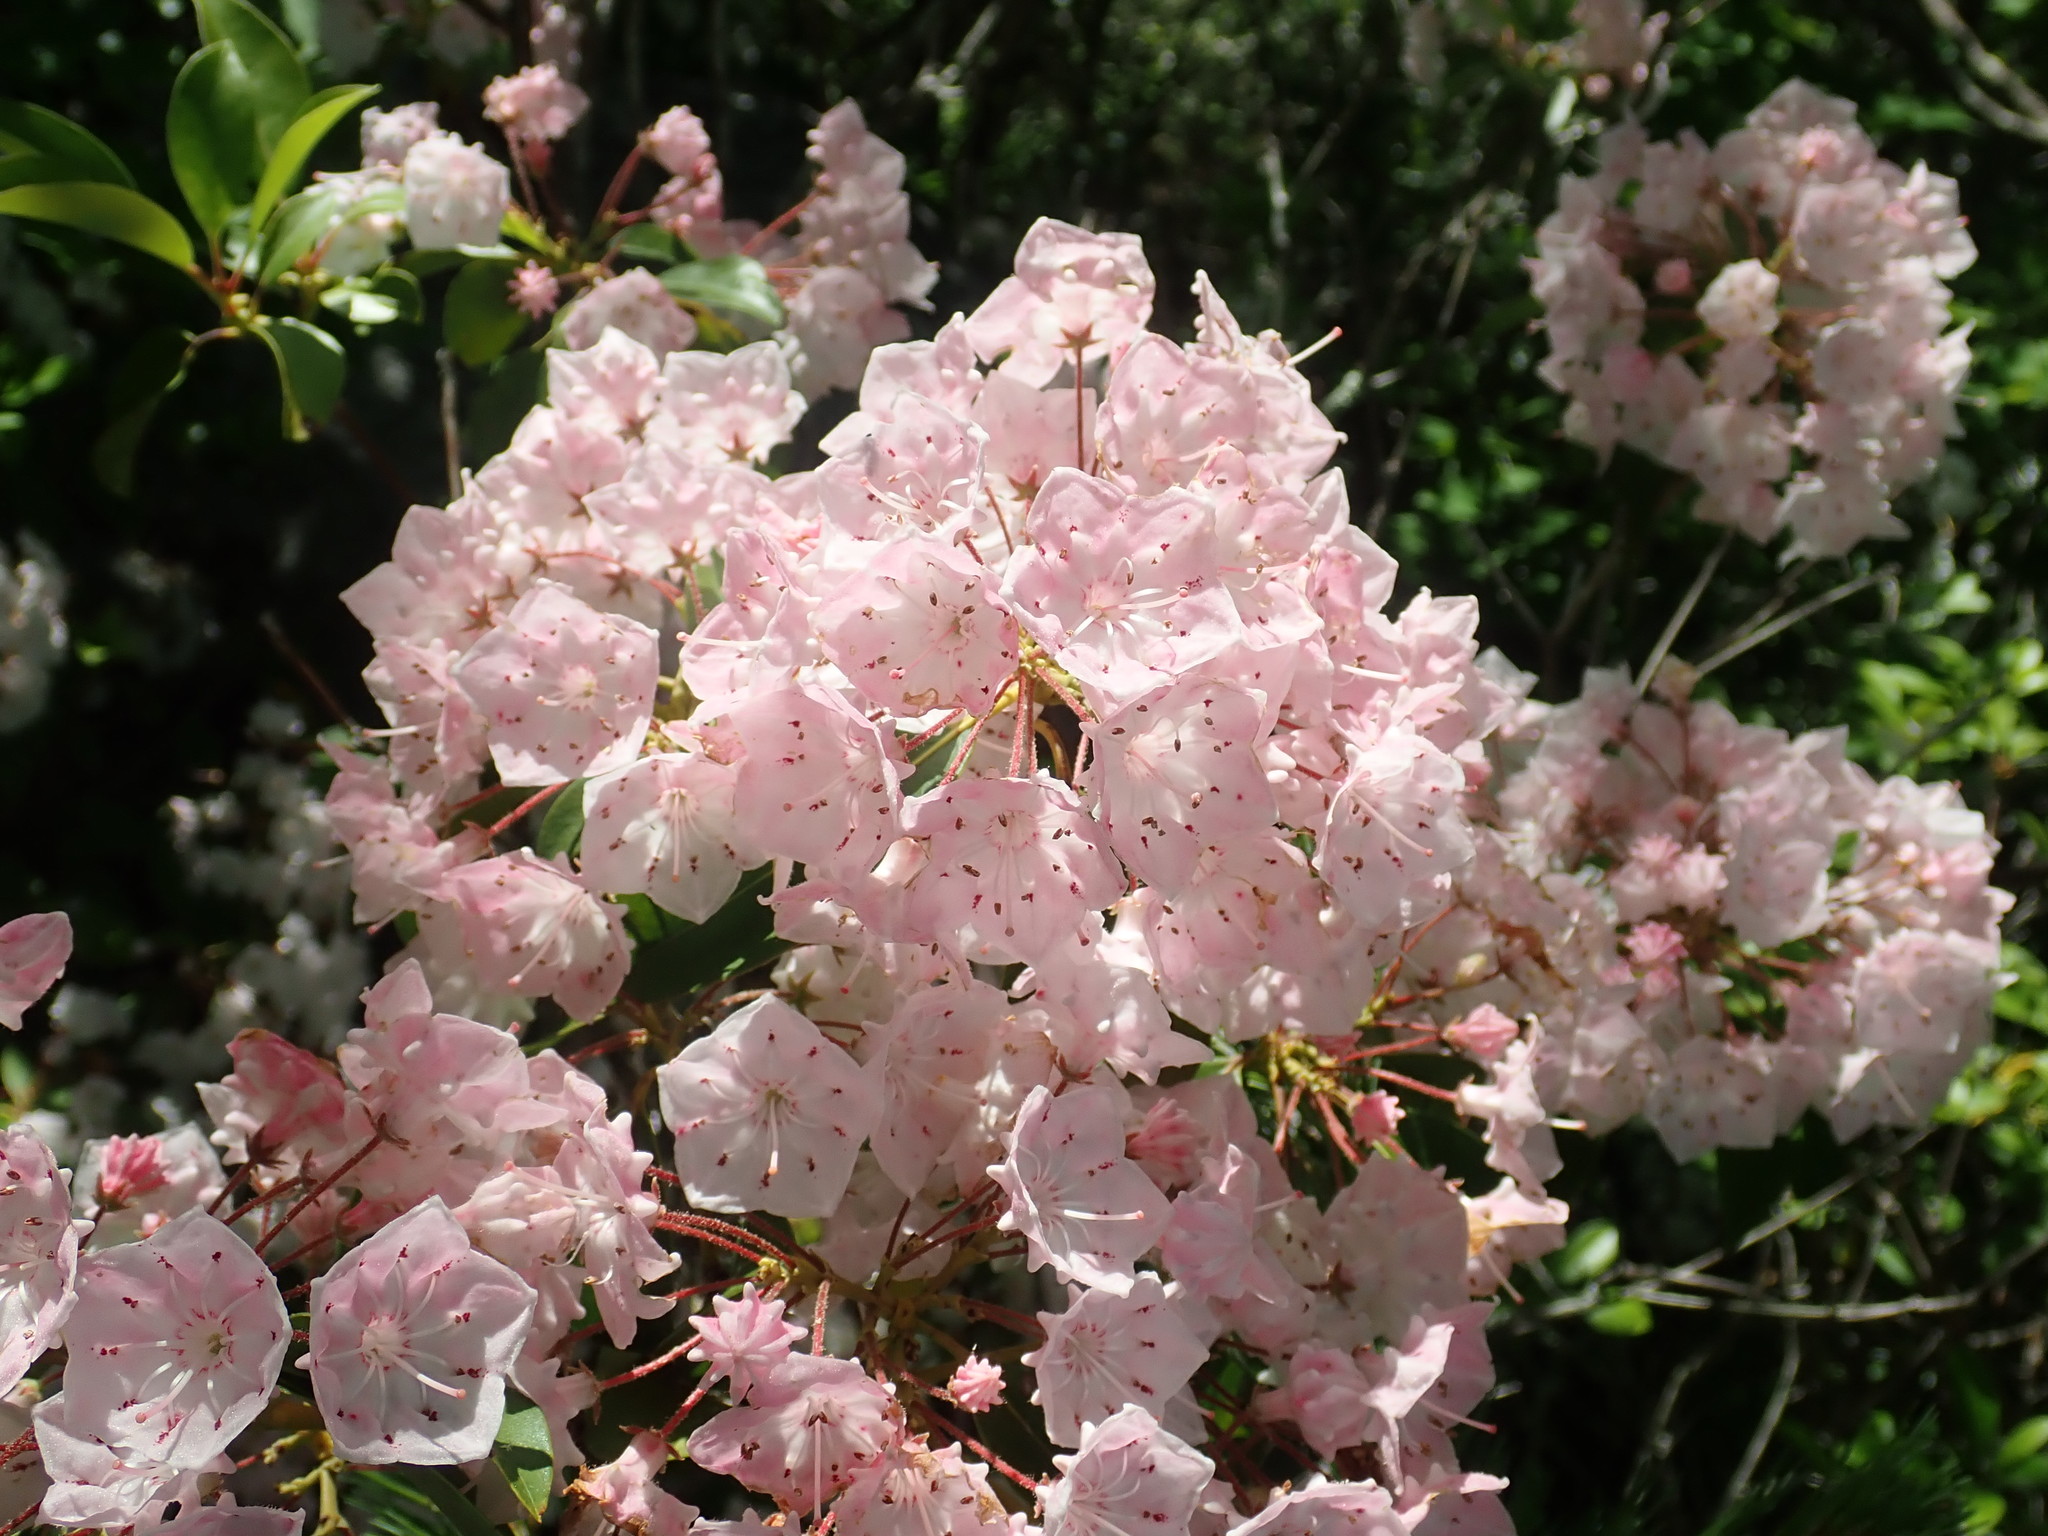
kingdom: Plantae
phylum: Tracheophyta
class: Magnoliopsida
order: Ericales
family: Ericaceae
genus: Kalmia
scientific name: Kalmia latifolia
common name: Mountain-laurel
